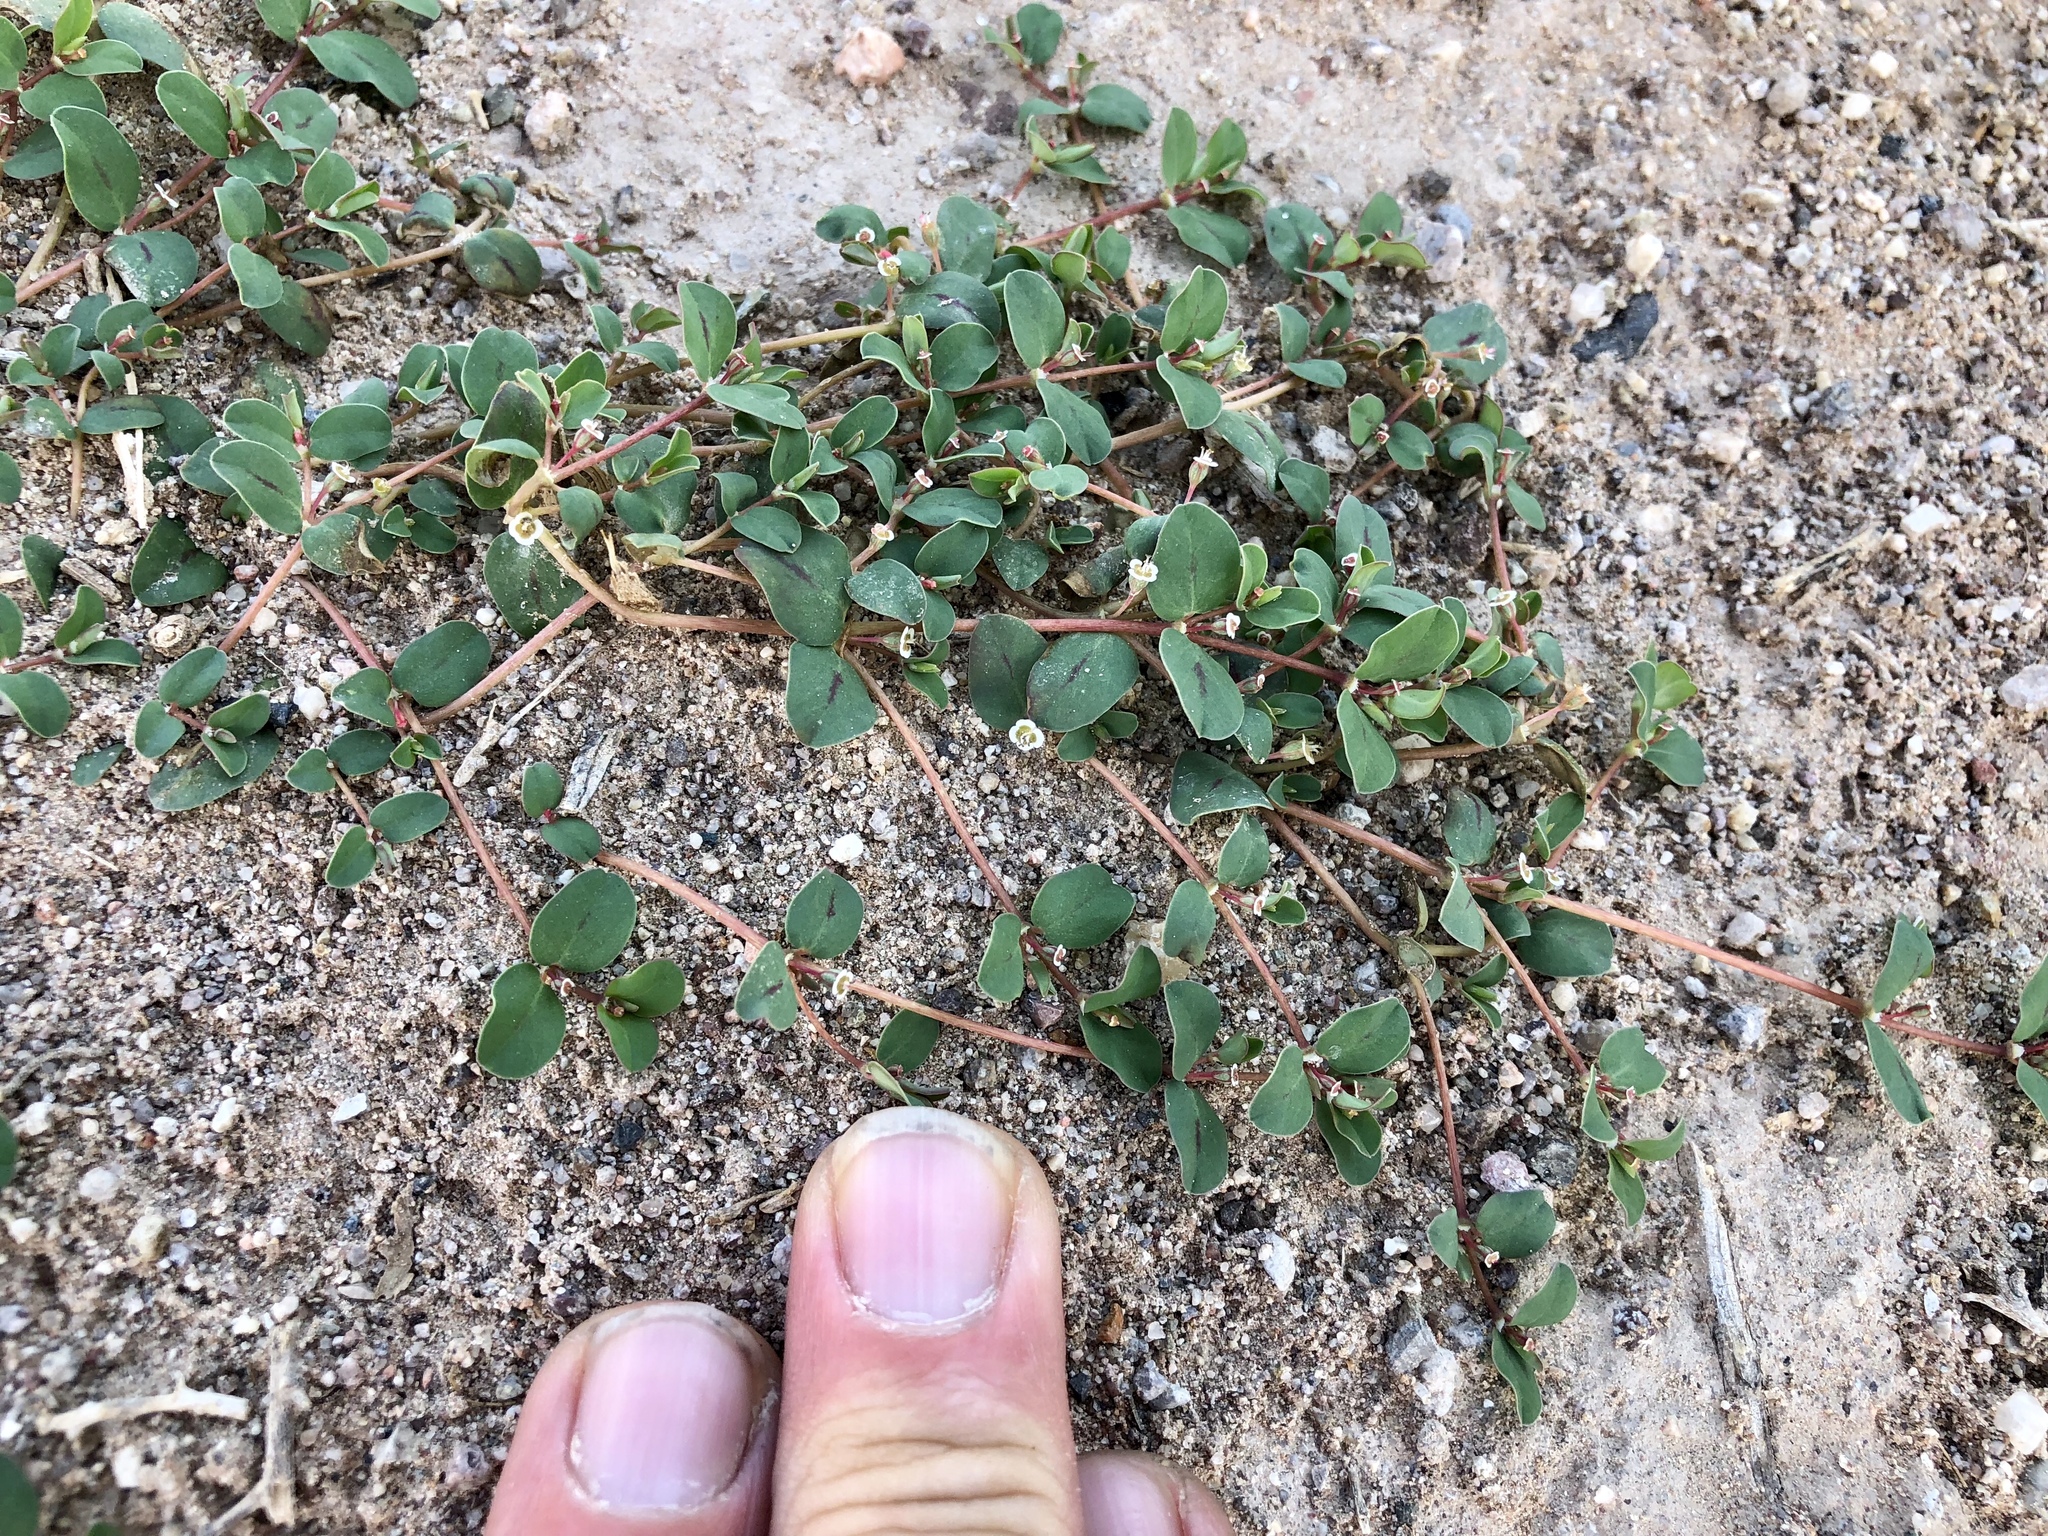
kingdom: Plantae
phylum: Tracheophyta
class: Magnoliopsida
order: Malpighiales
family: Euphorbiaceae
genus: Euphorbia
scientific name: Euphorbia albomarginata
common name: Whitemargin sandmat
